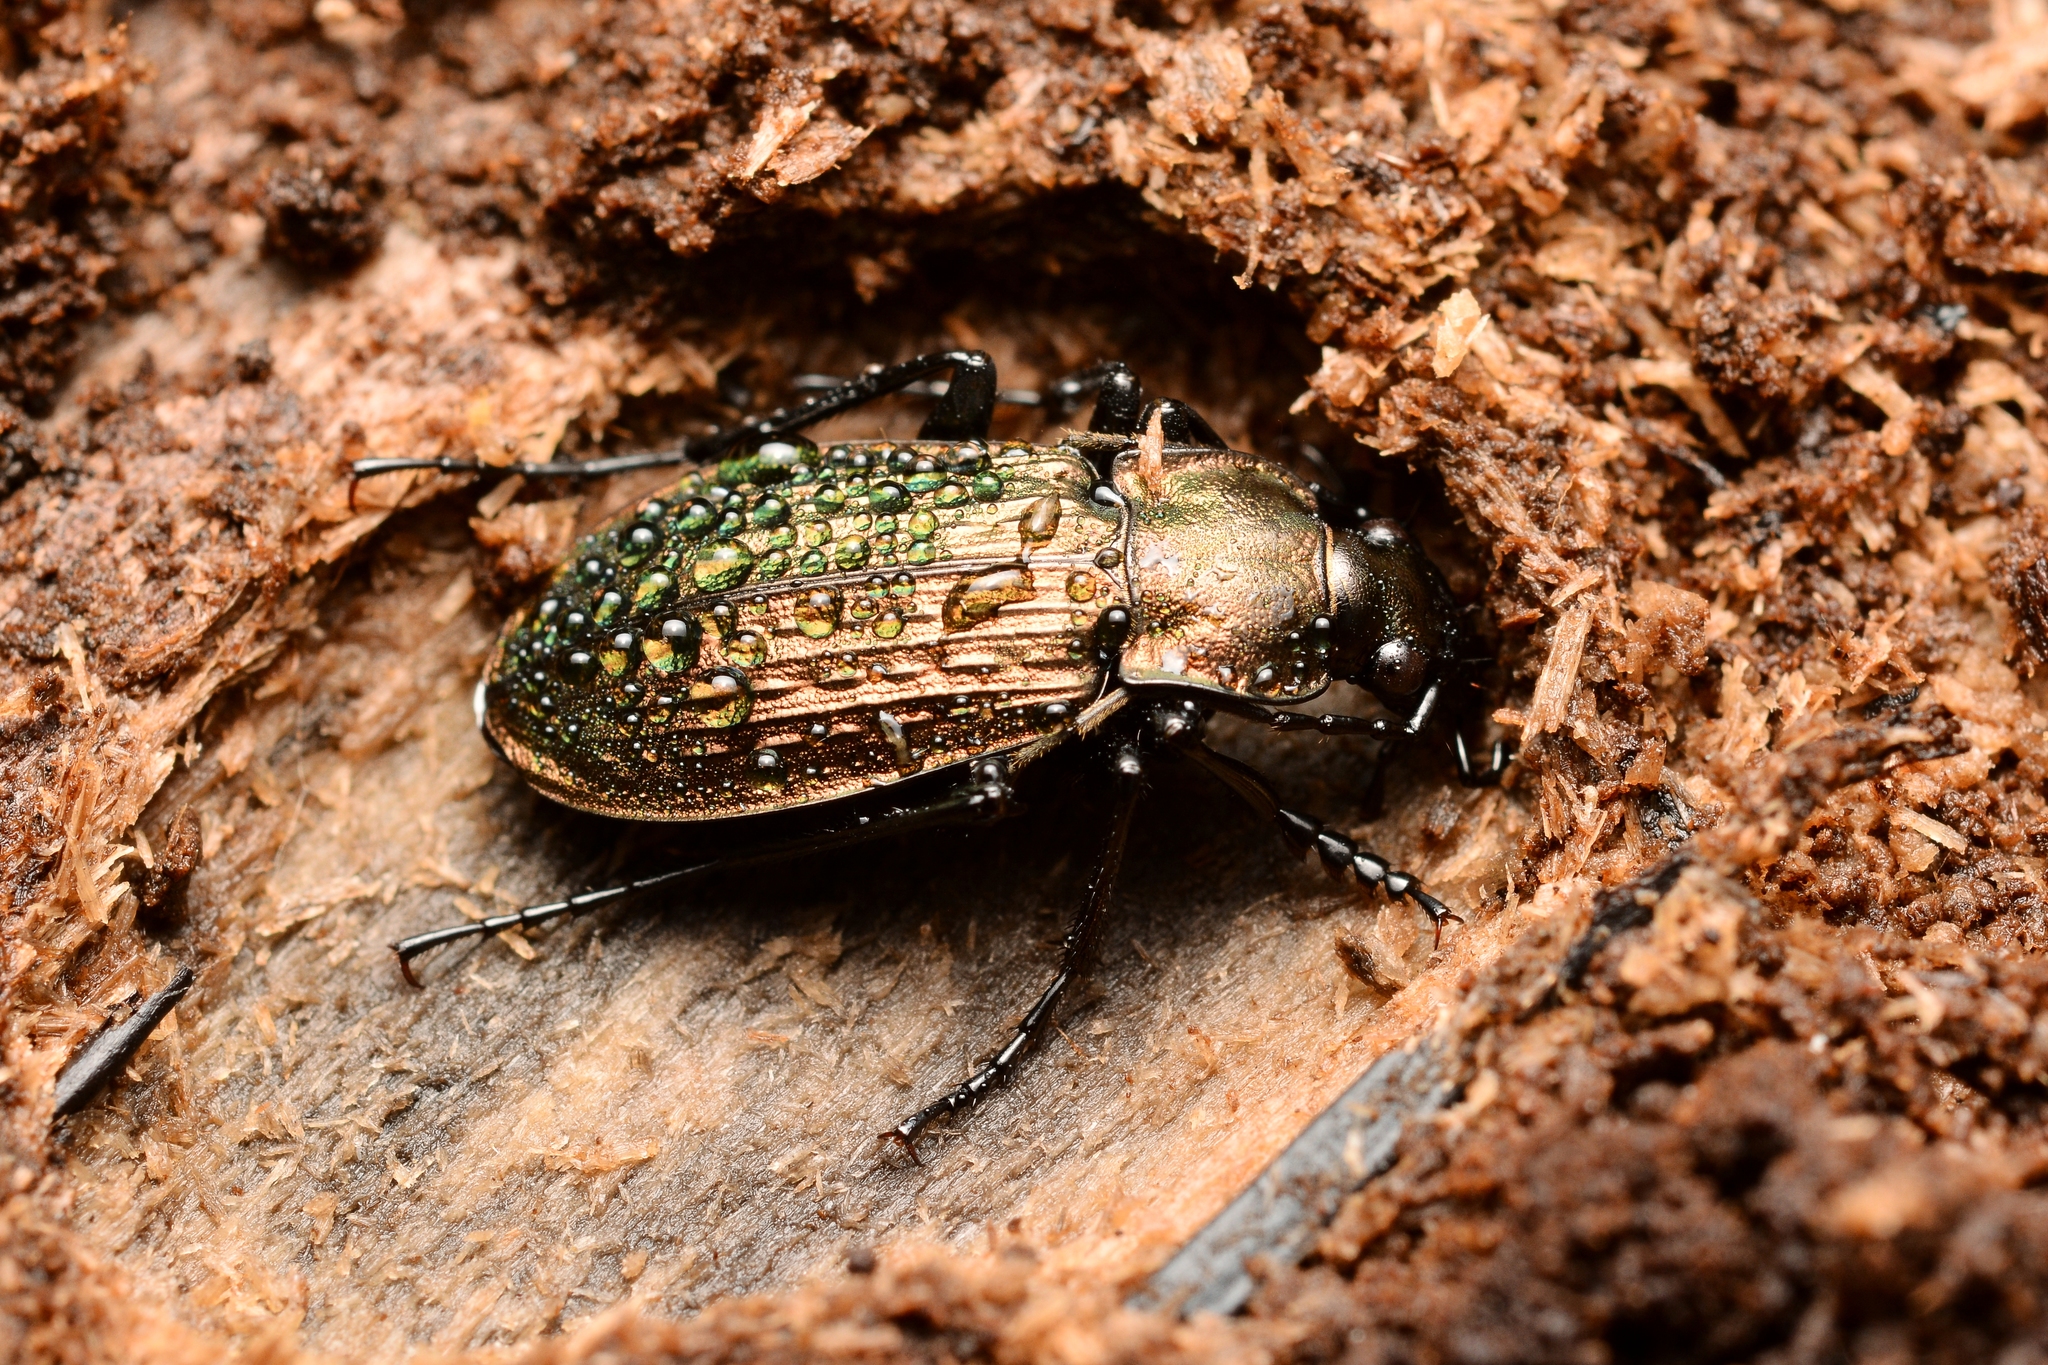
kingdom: Animalia
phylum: Arthropoda
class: Insecta
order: Coleoptera
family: Carabidae
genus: Carabus
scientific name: Carabus granulatus
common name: Granulate ground beetle
